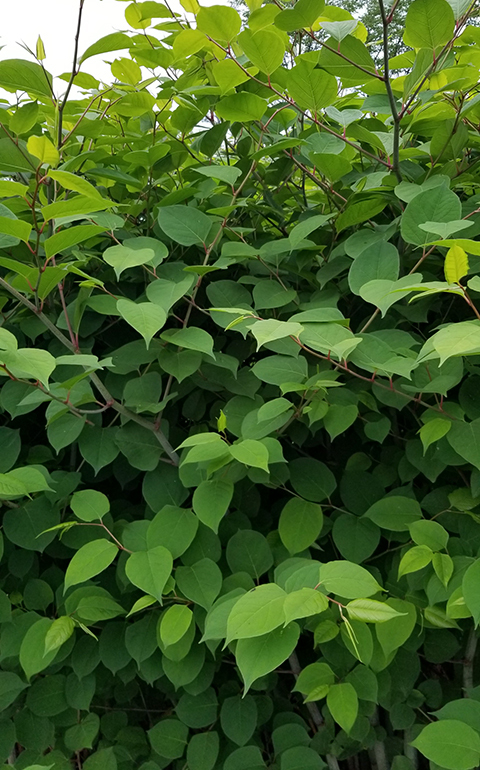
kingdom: Plantae
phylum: Tracheophyta
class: Magnoliopsida
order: Caryophyllales
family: Polygonaceae
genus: Reynoutria
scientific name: Reynoutria japonica
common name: Japanese knotweed
